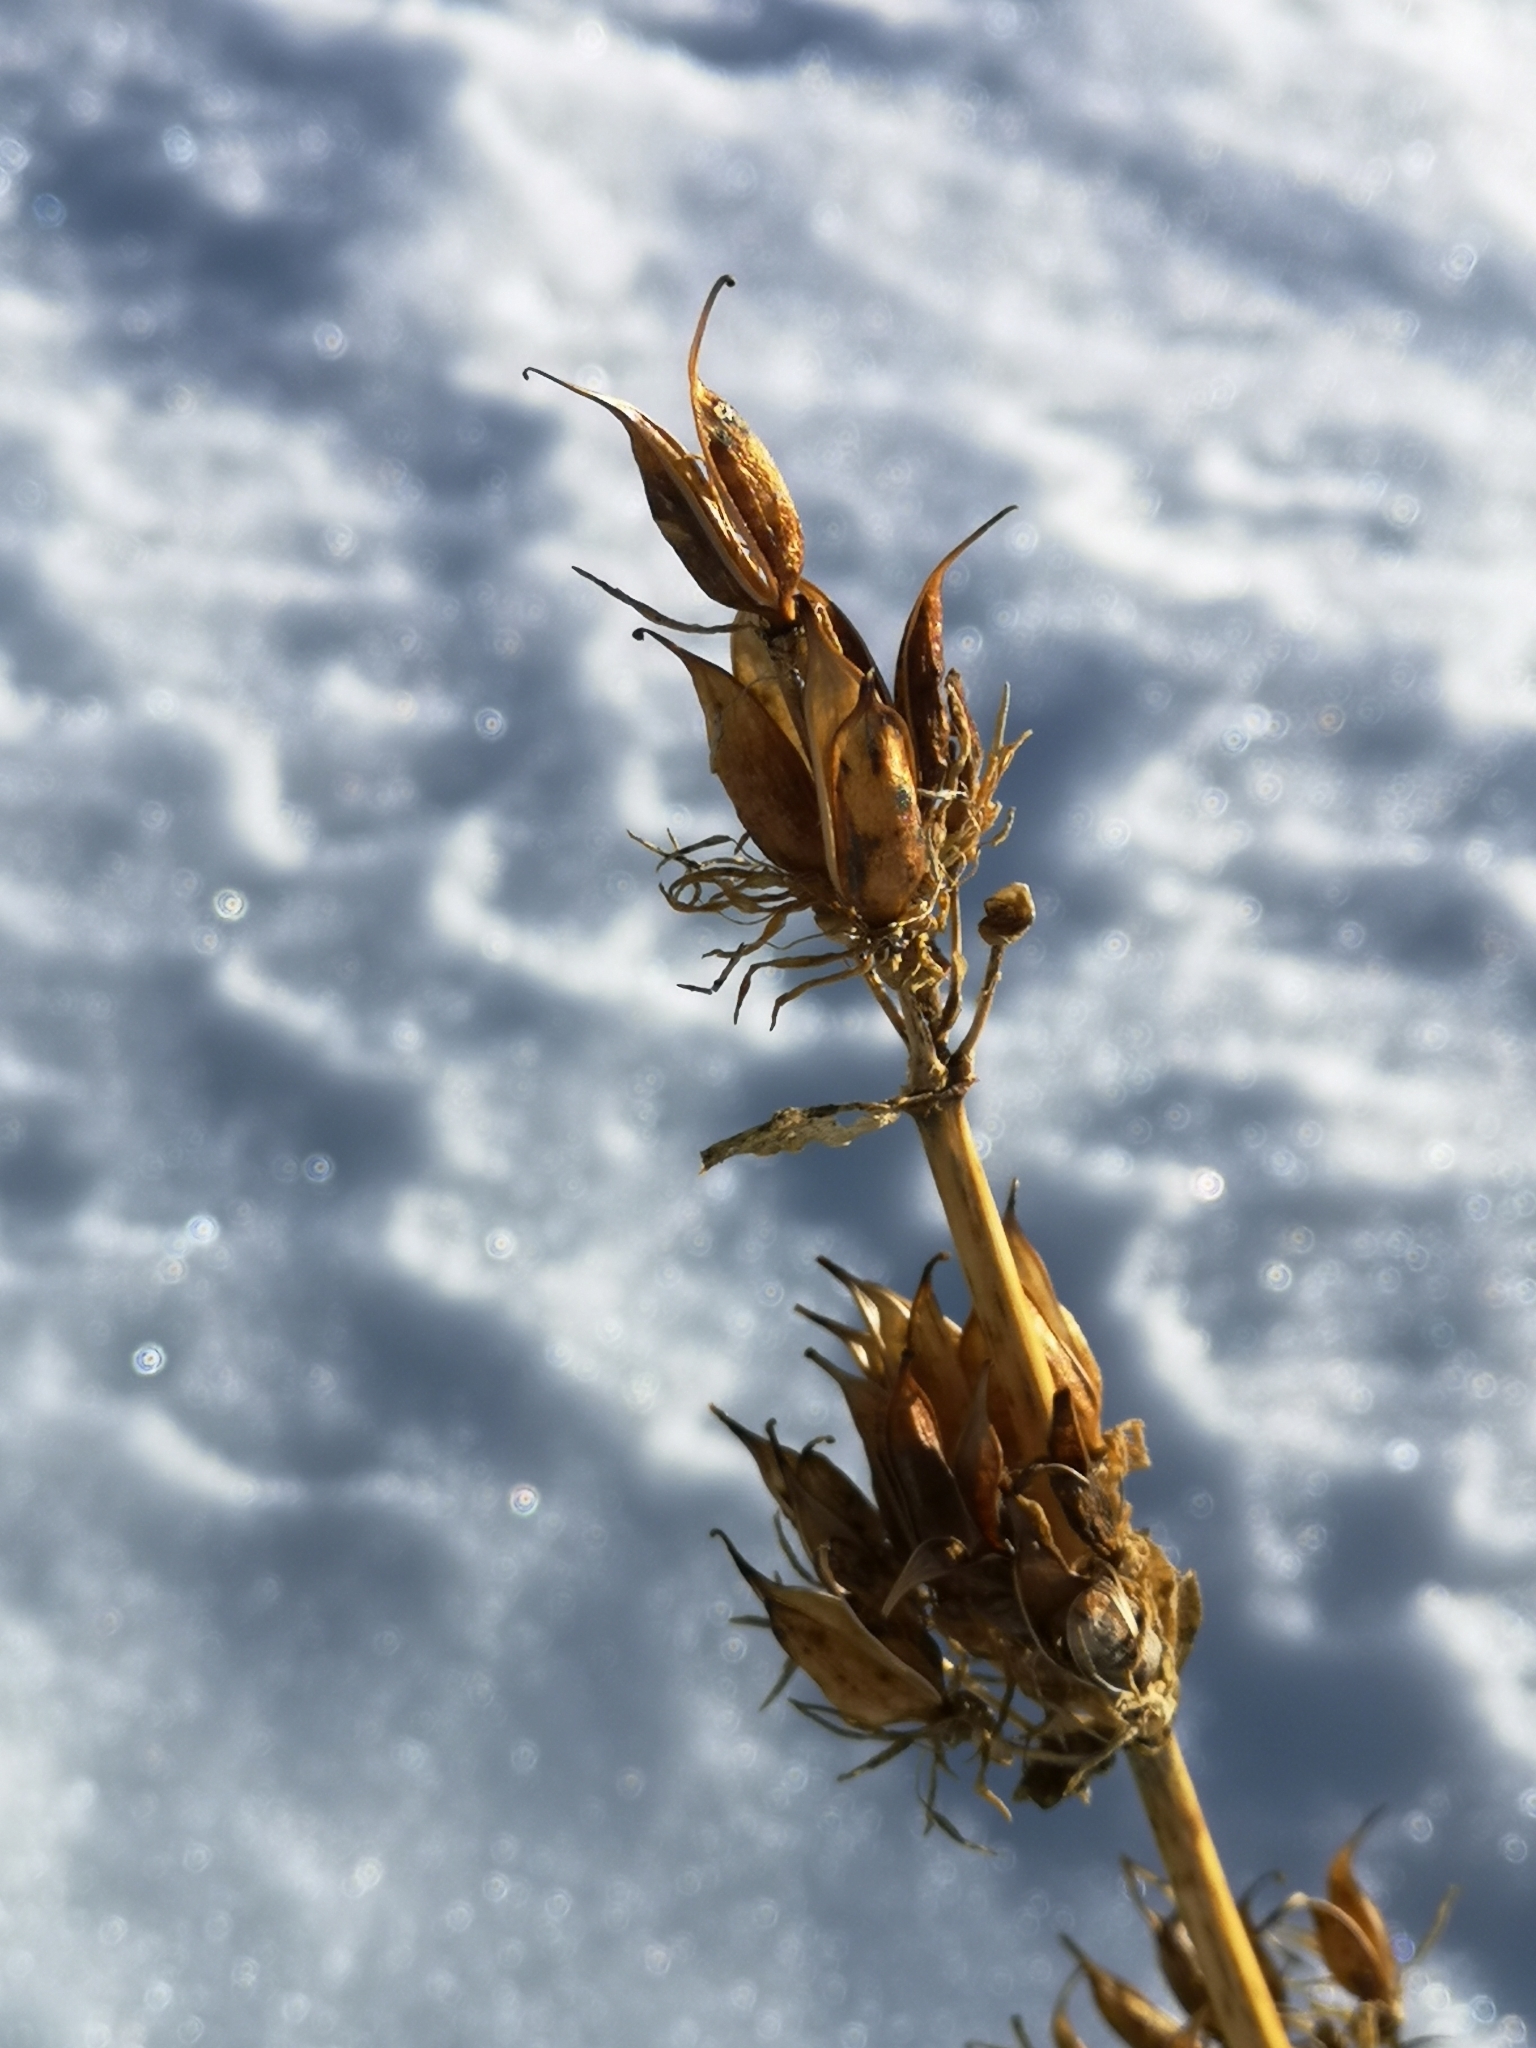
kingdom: Plantae
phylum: Tracheophyta
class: Magnoliopsida
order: Gentianales
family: Gentianaceae
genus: Gentiana
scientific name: Gentiana lutea
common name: Great yellow gentian
